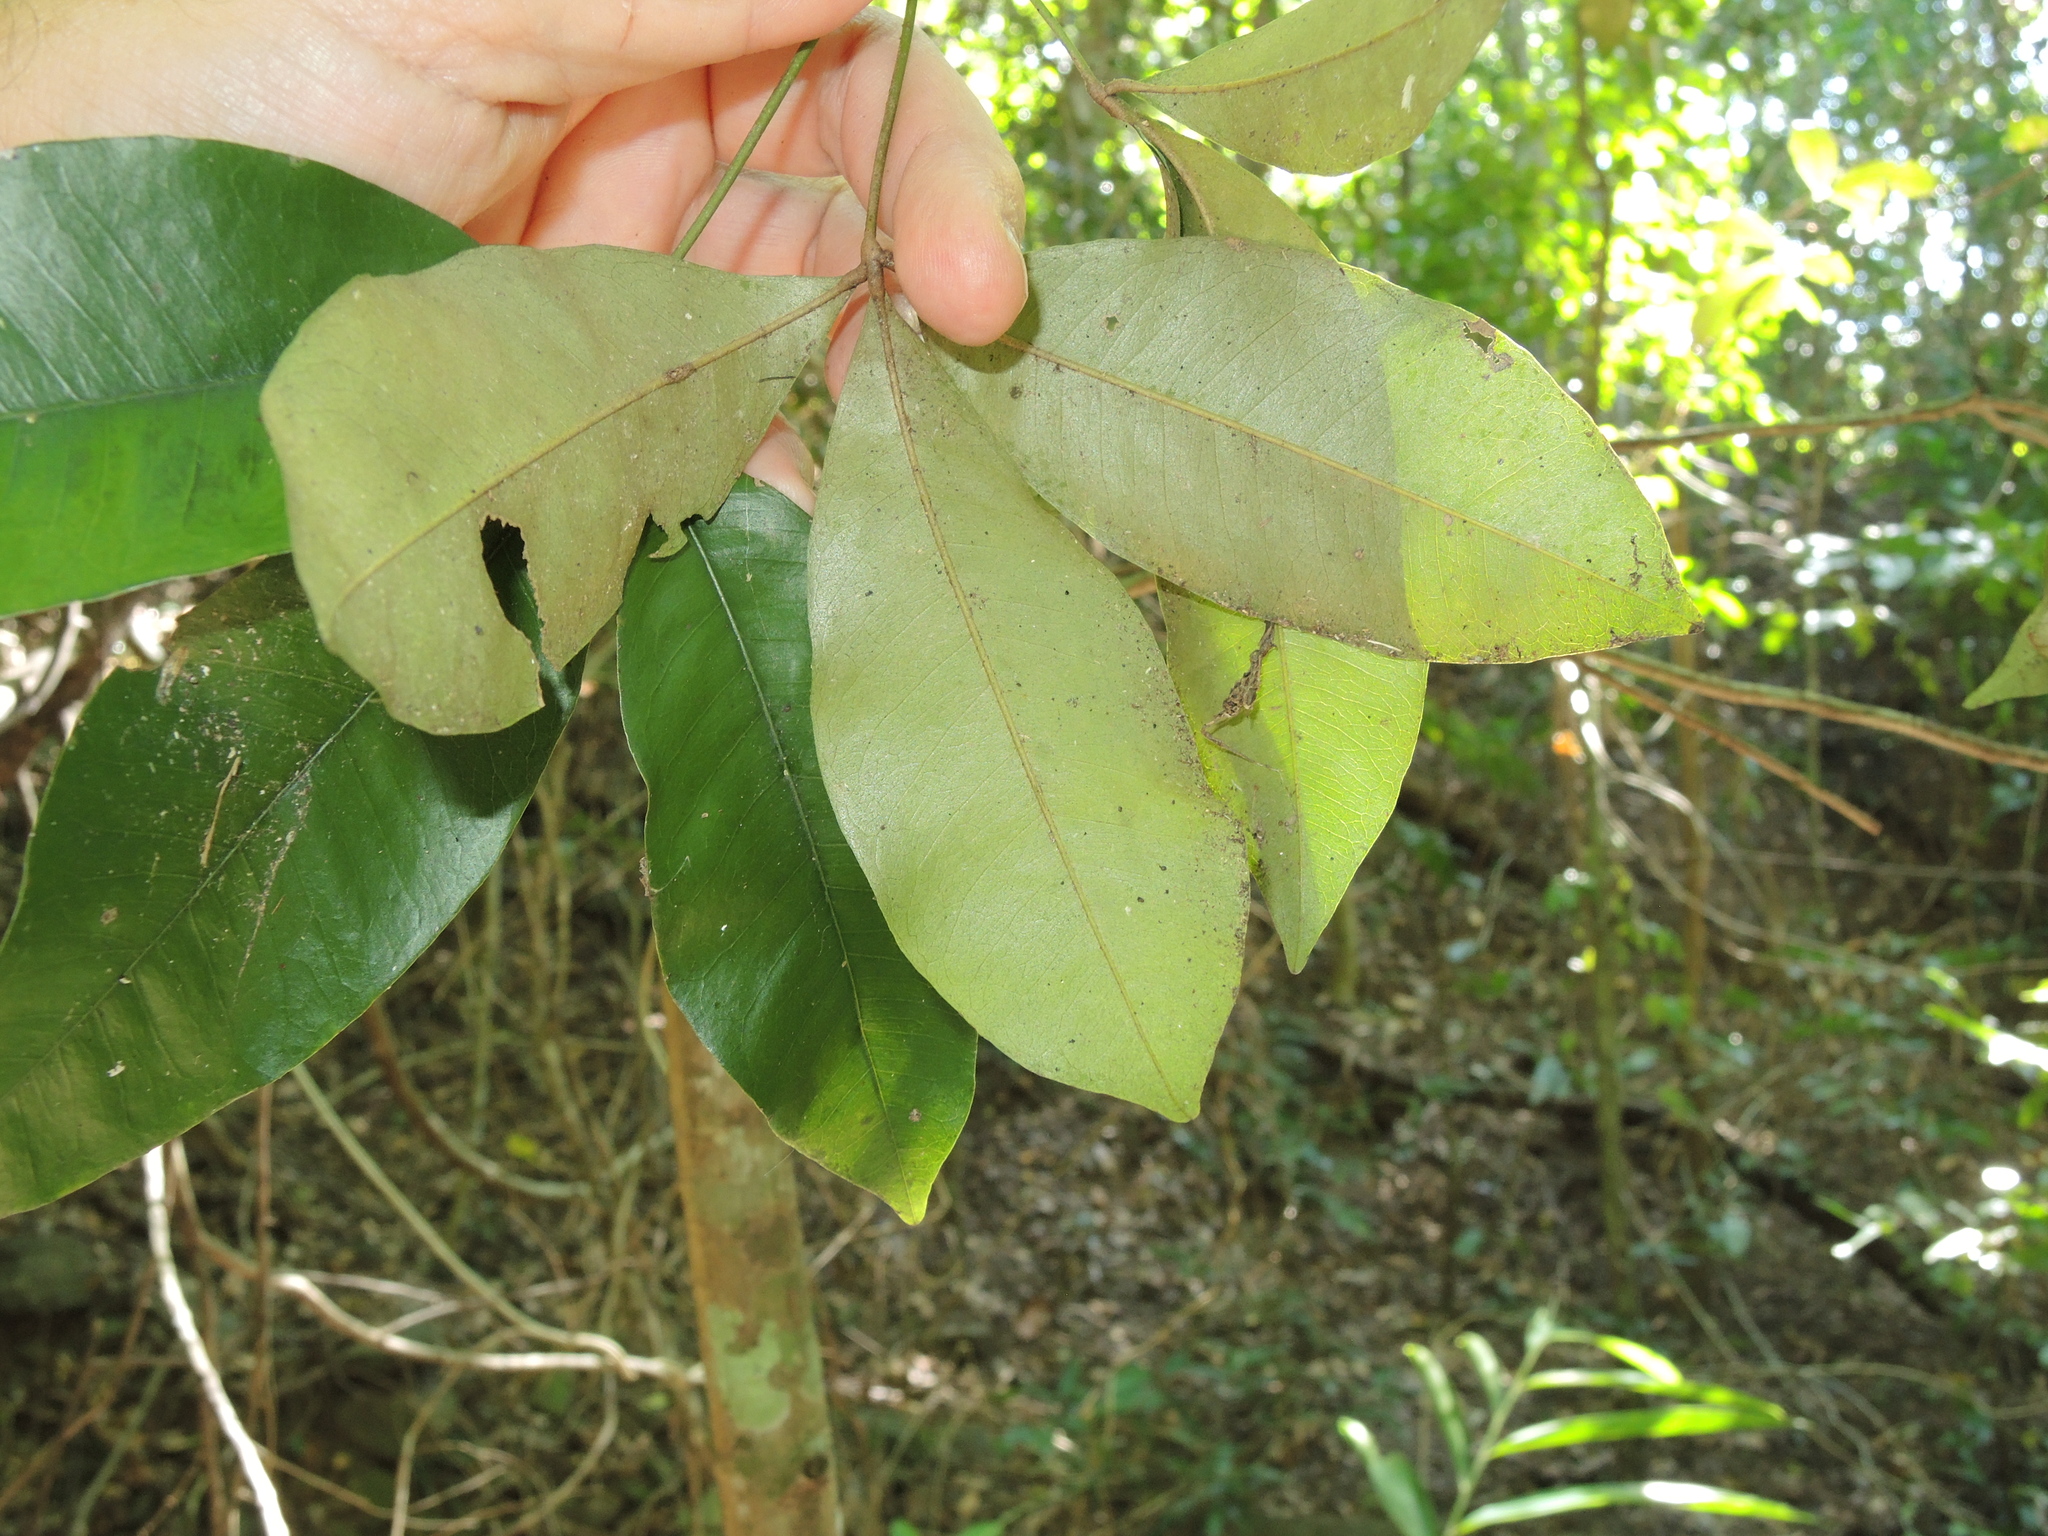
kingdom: Plantae
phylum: Tracheophyta
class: Magnoliopsida
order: Malvales
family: Malvaceae
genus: Argyrodendron
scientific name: Argyrodendron trifoliolatum
